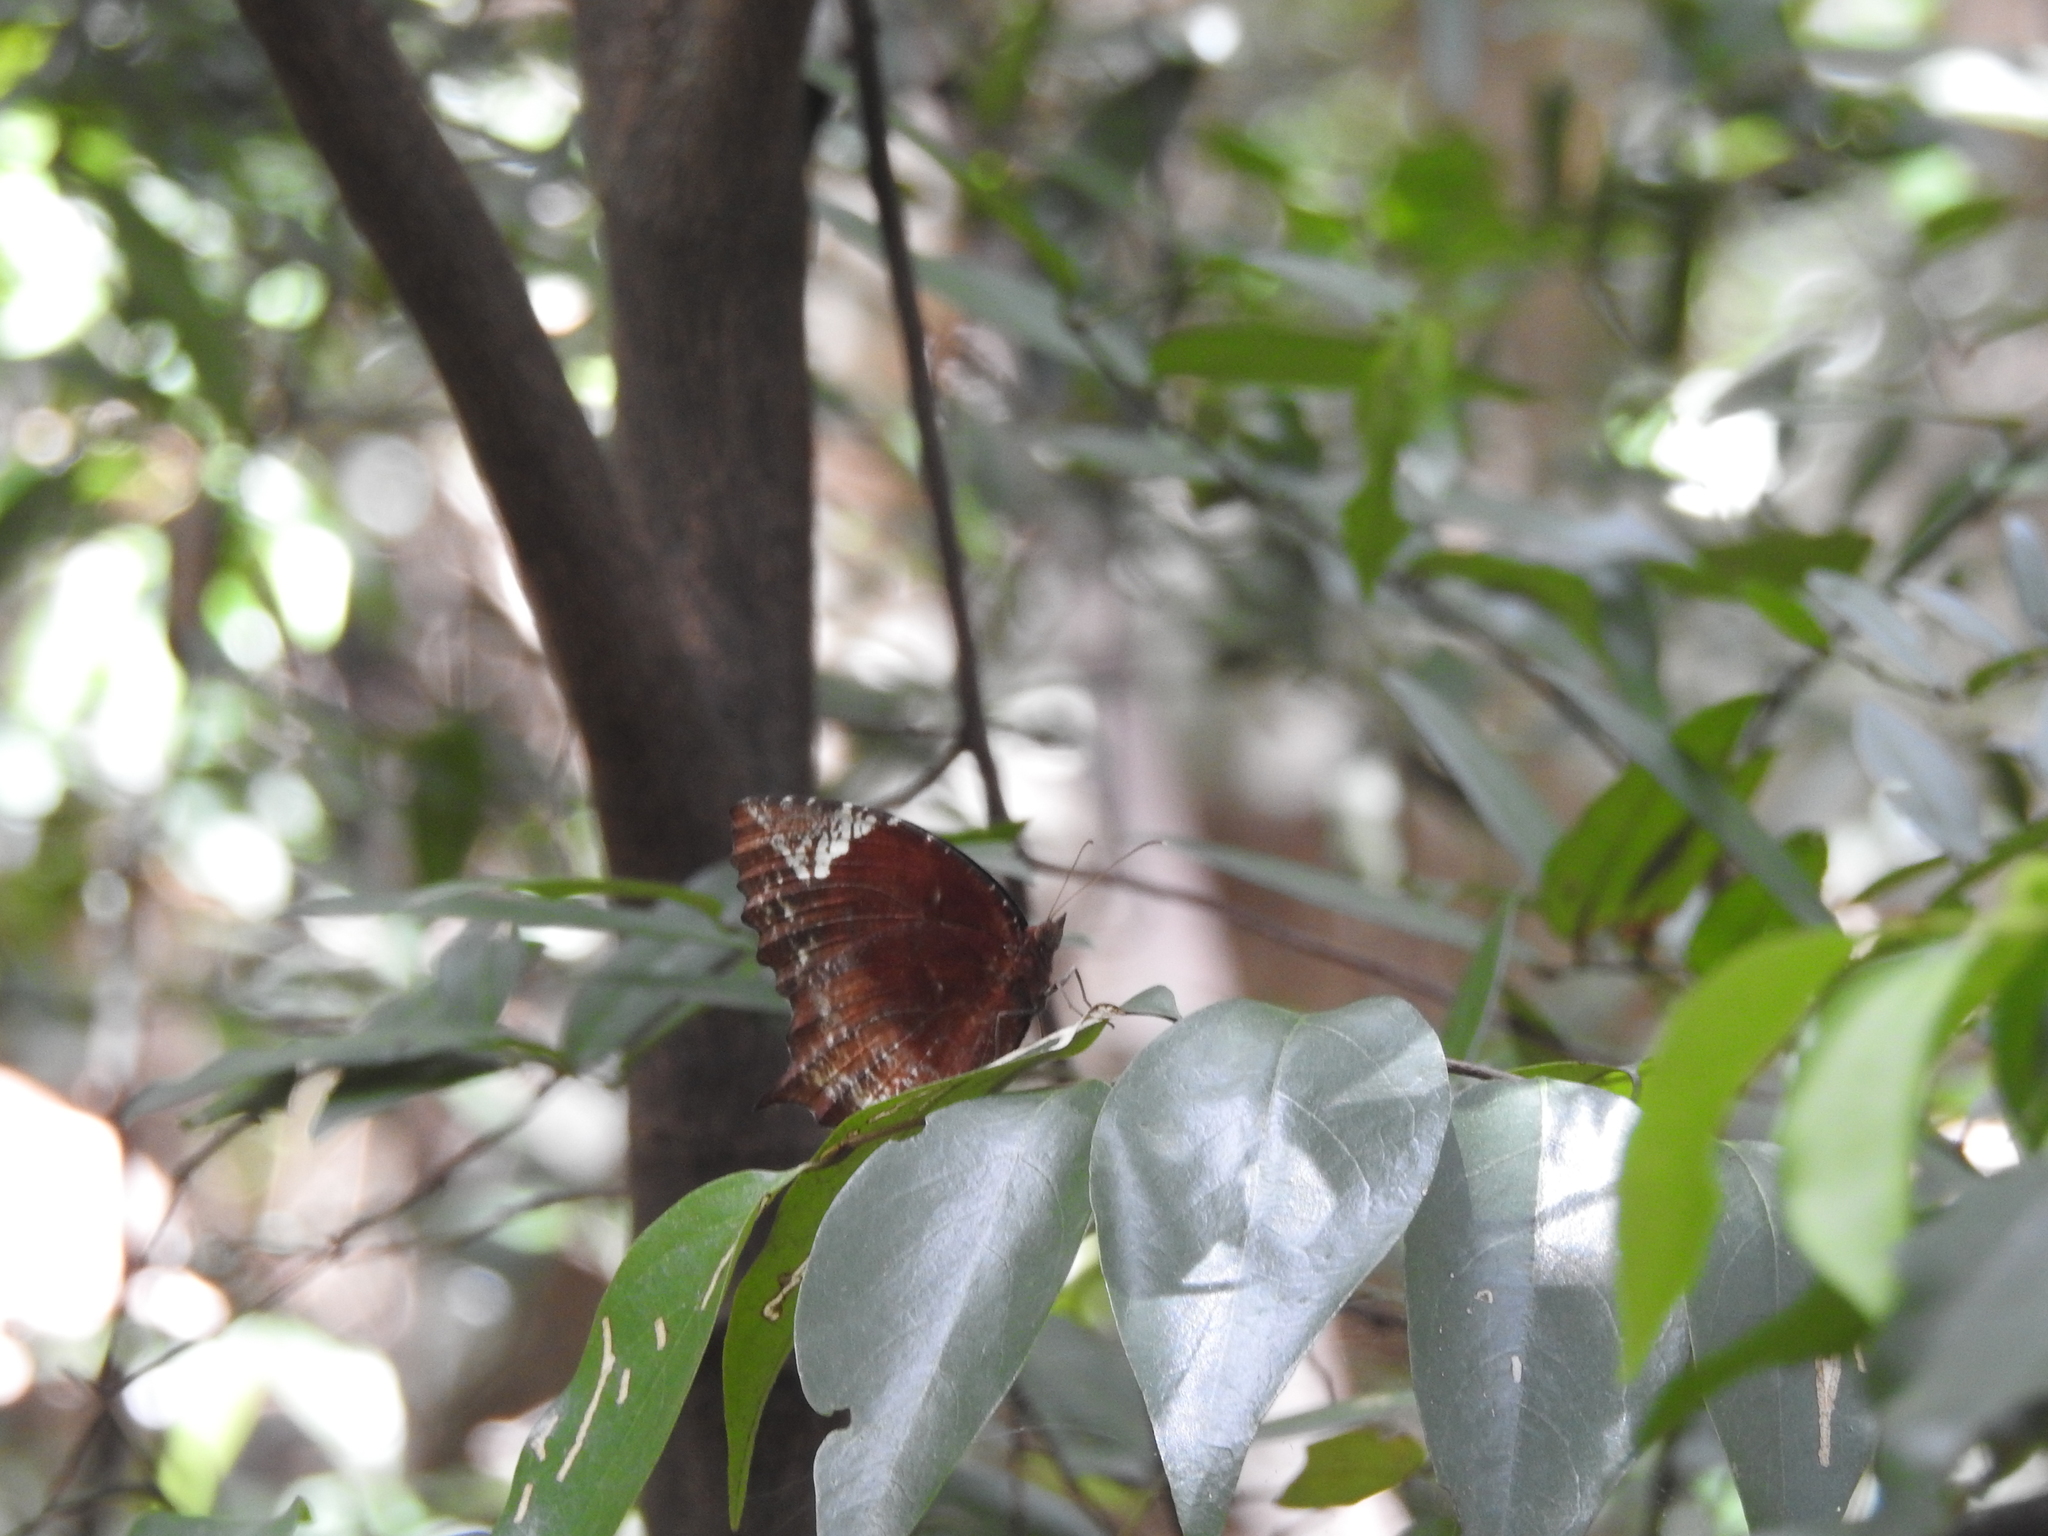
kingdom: Animalia
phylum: Arthropoda
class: Insecta
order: Lepidoptera
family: Nymphalidae
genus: Elymnias
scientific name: Elymnias caudata
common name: Tailed palmfly
